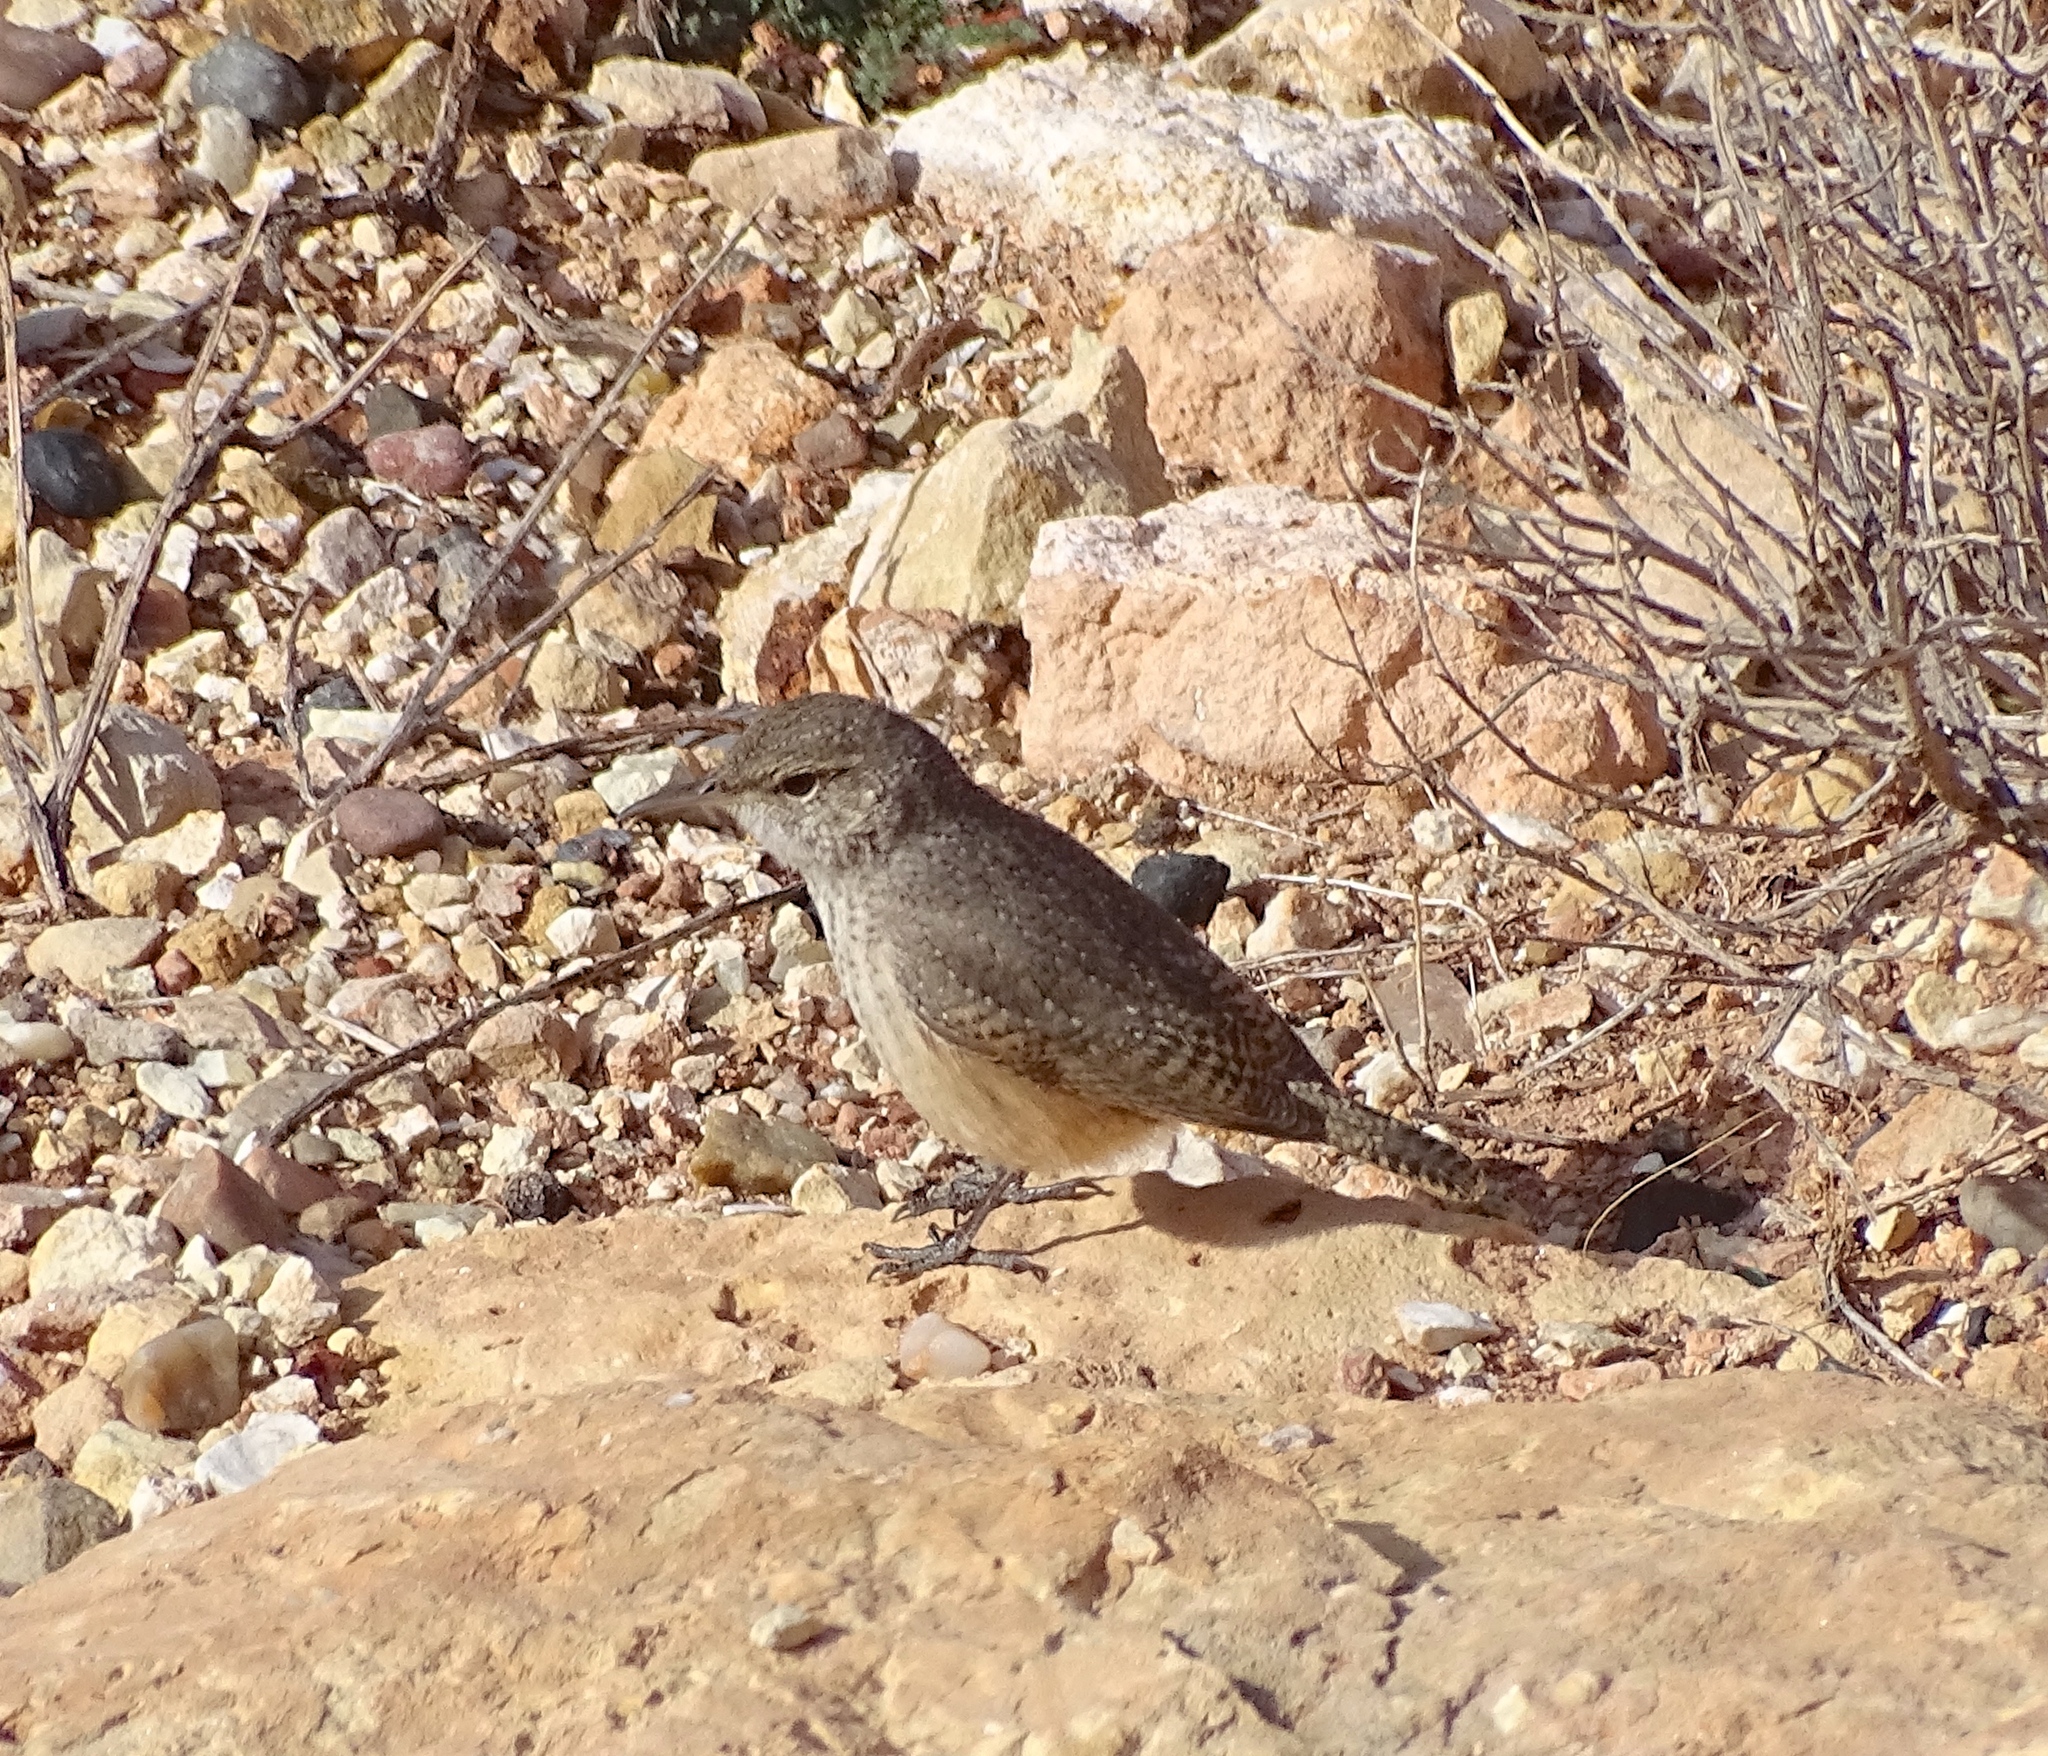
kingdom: Animalia
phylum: Chordata
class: Aves
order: Passeriformes
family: Troglodytidae
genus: Salpinctes
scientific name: Salpinctes obsoletus
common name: Rock wren
